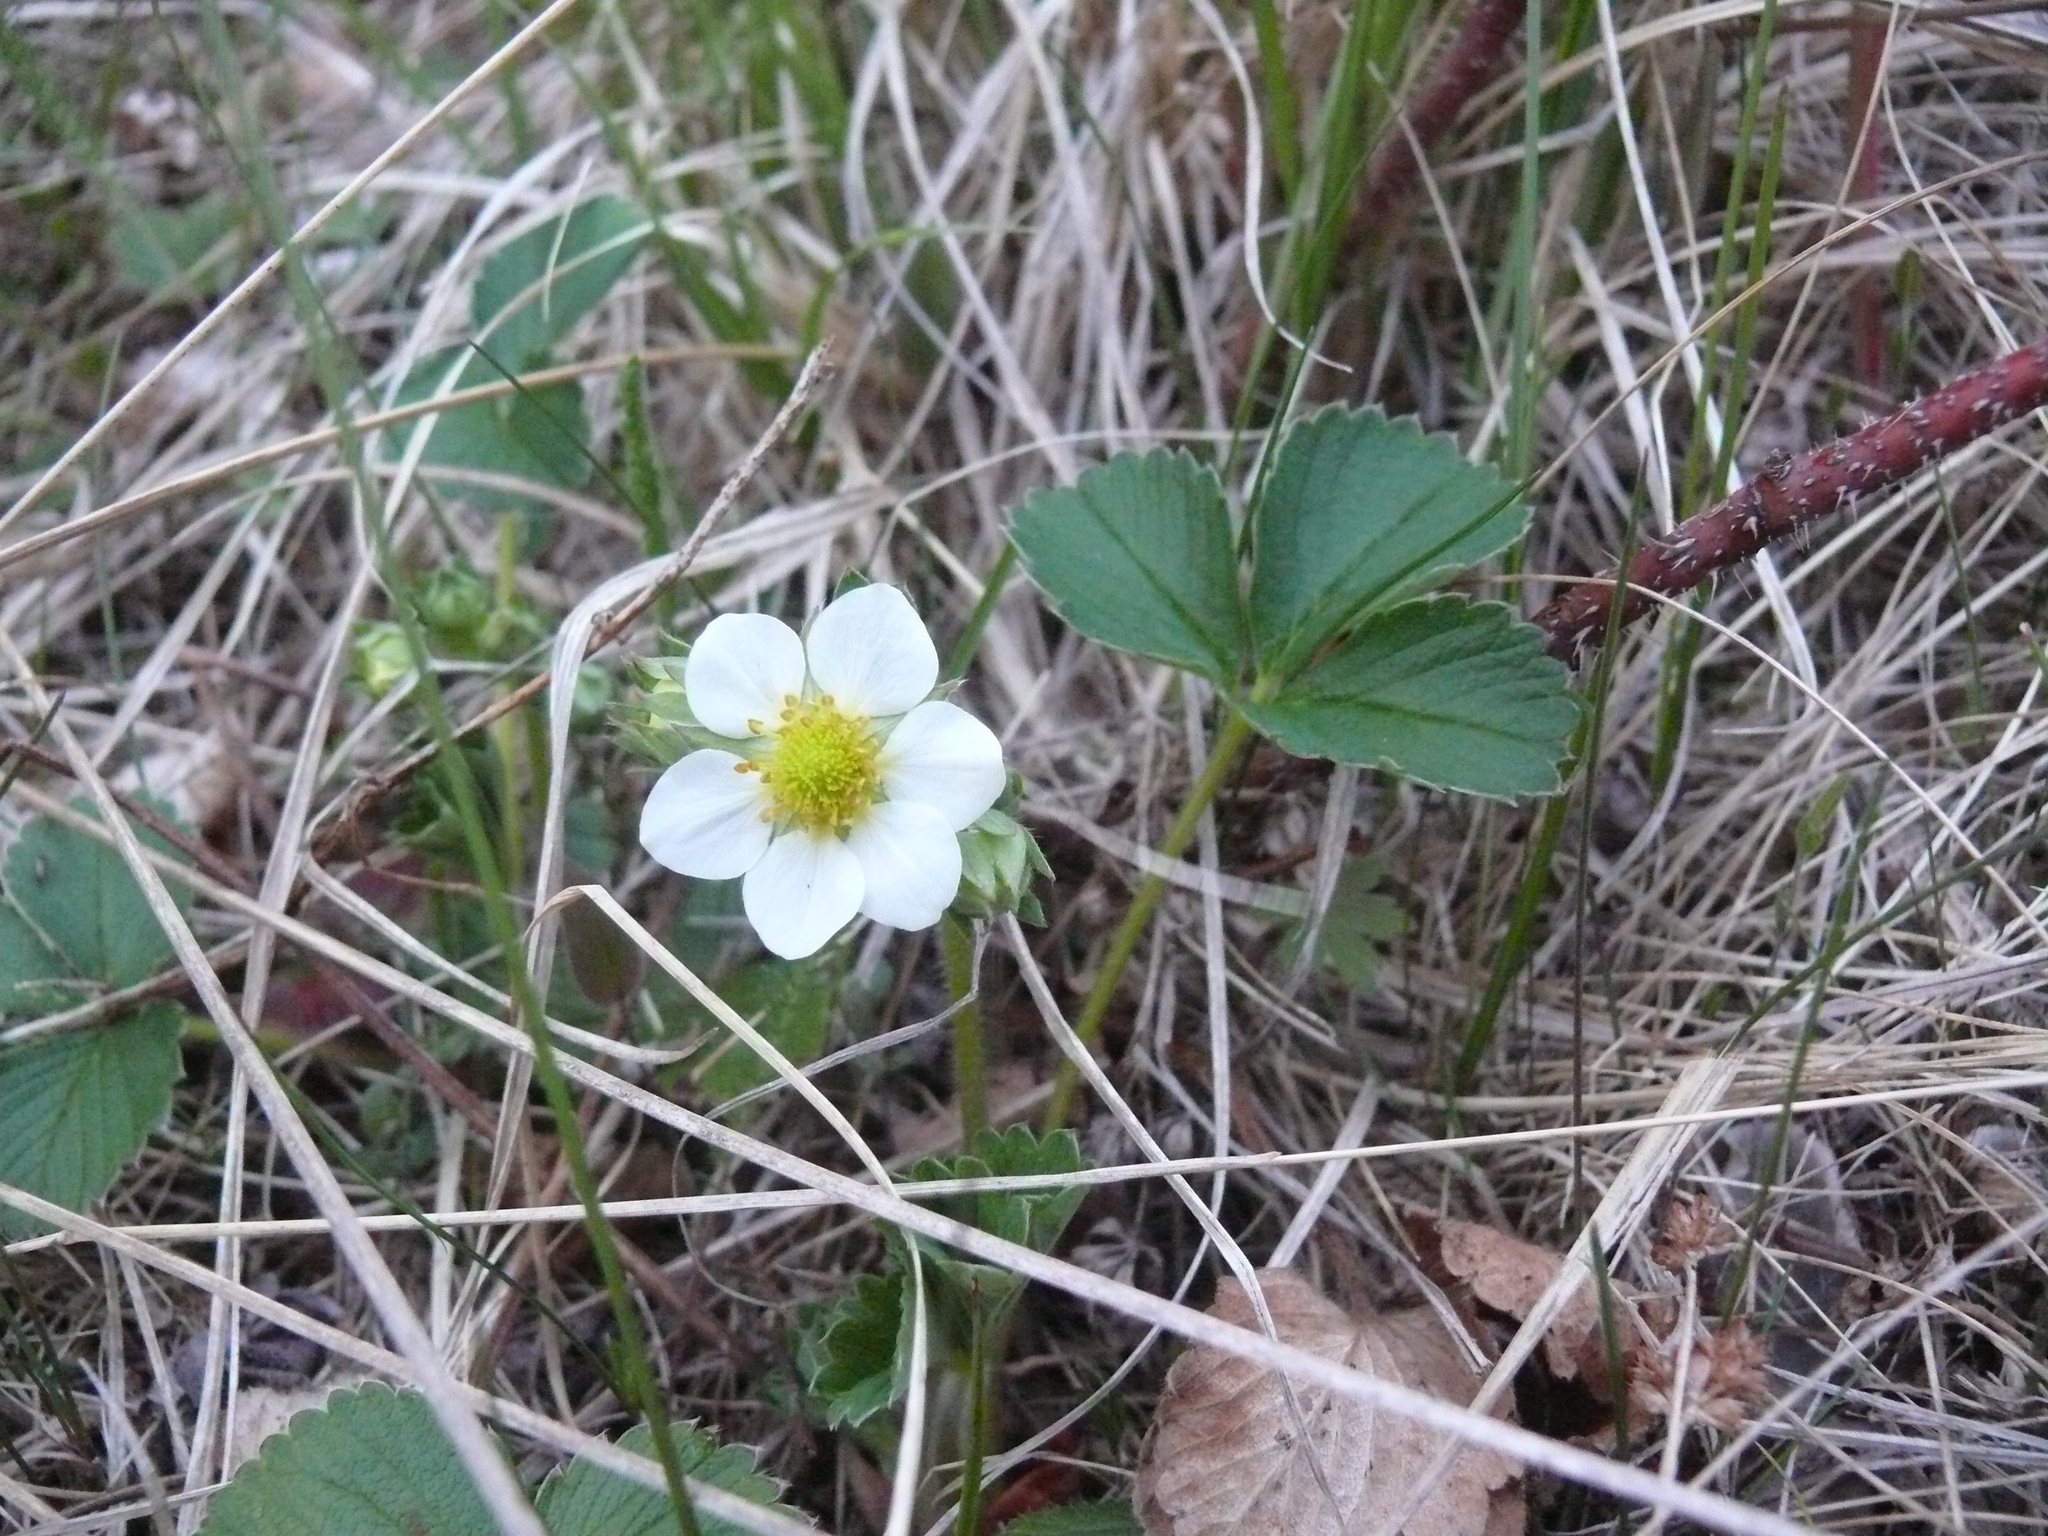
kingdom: Plantae
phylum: Tracheophyta
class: Magnoliopsida
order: Rosales
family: Rosaceae
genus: Fragaria
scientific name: Fragaria chiloensis
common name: Beach strawberry
